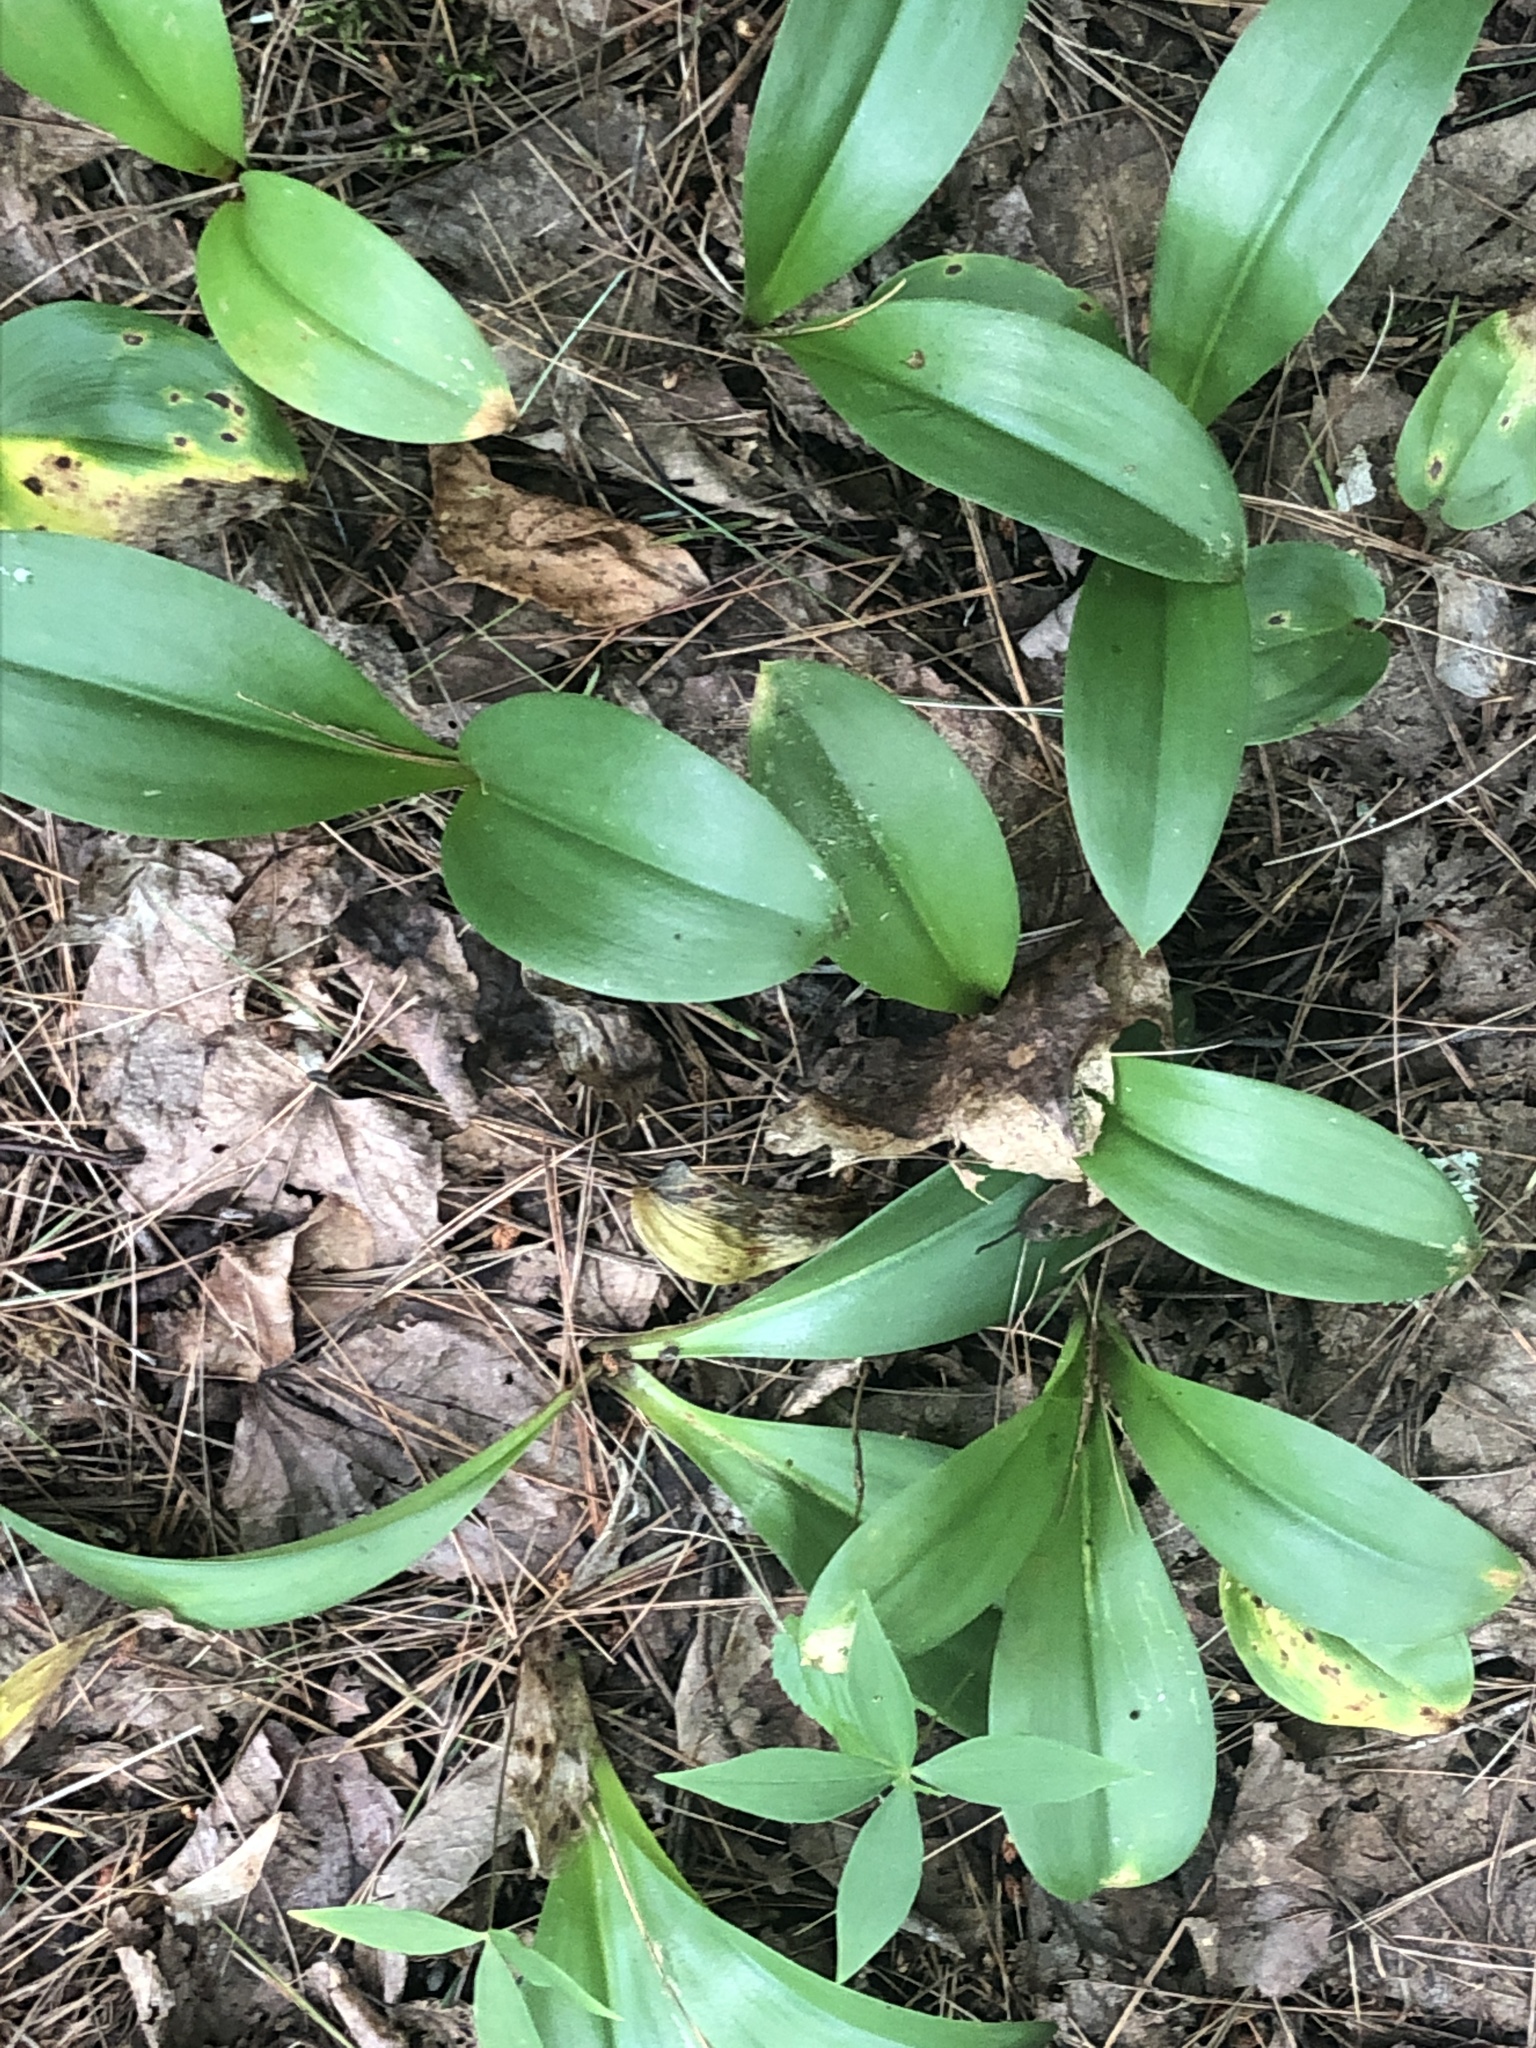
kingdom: Plantae
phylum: Tracheophyta
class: Liliopsida
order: Liliales
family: Liliaceae
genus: Clintonia
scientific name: Clintonia borealis
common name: Yellow clintonia
